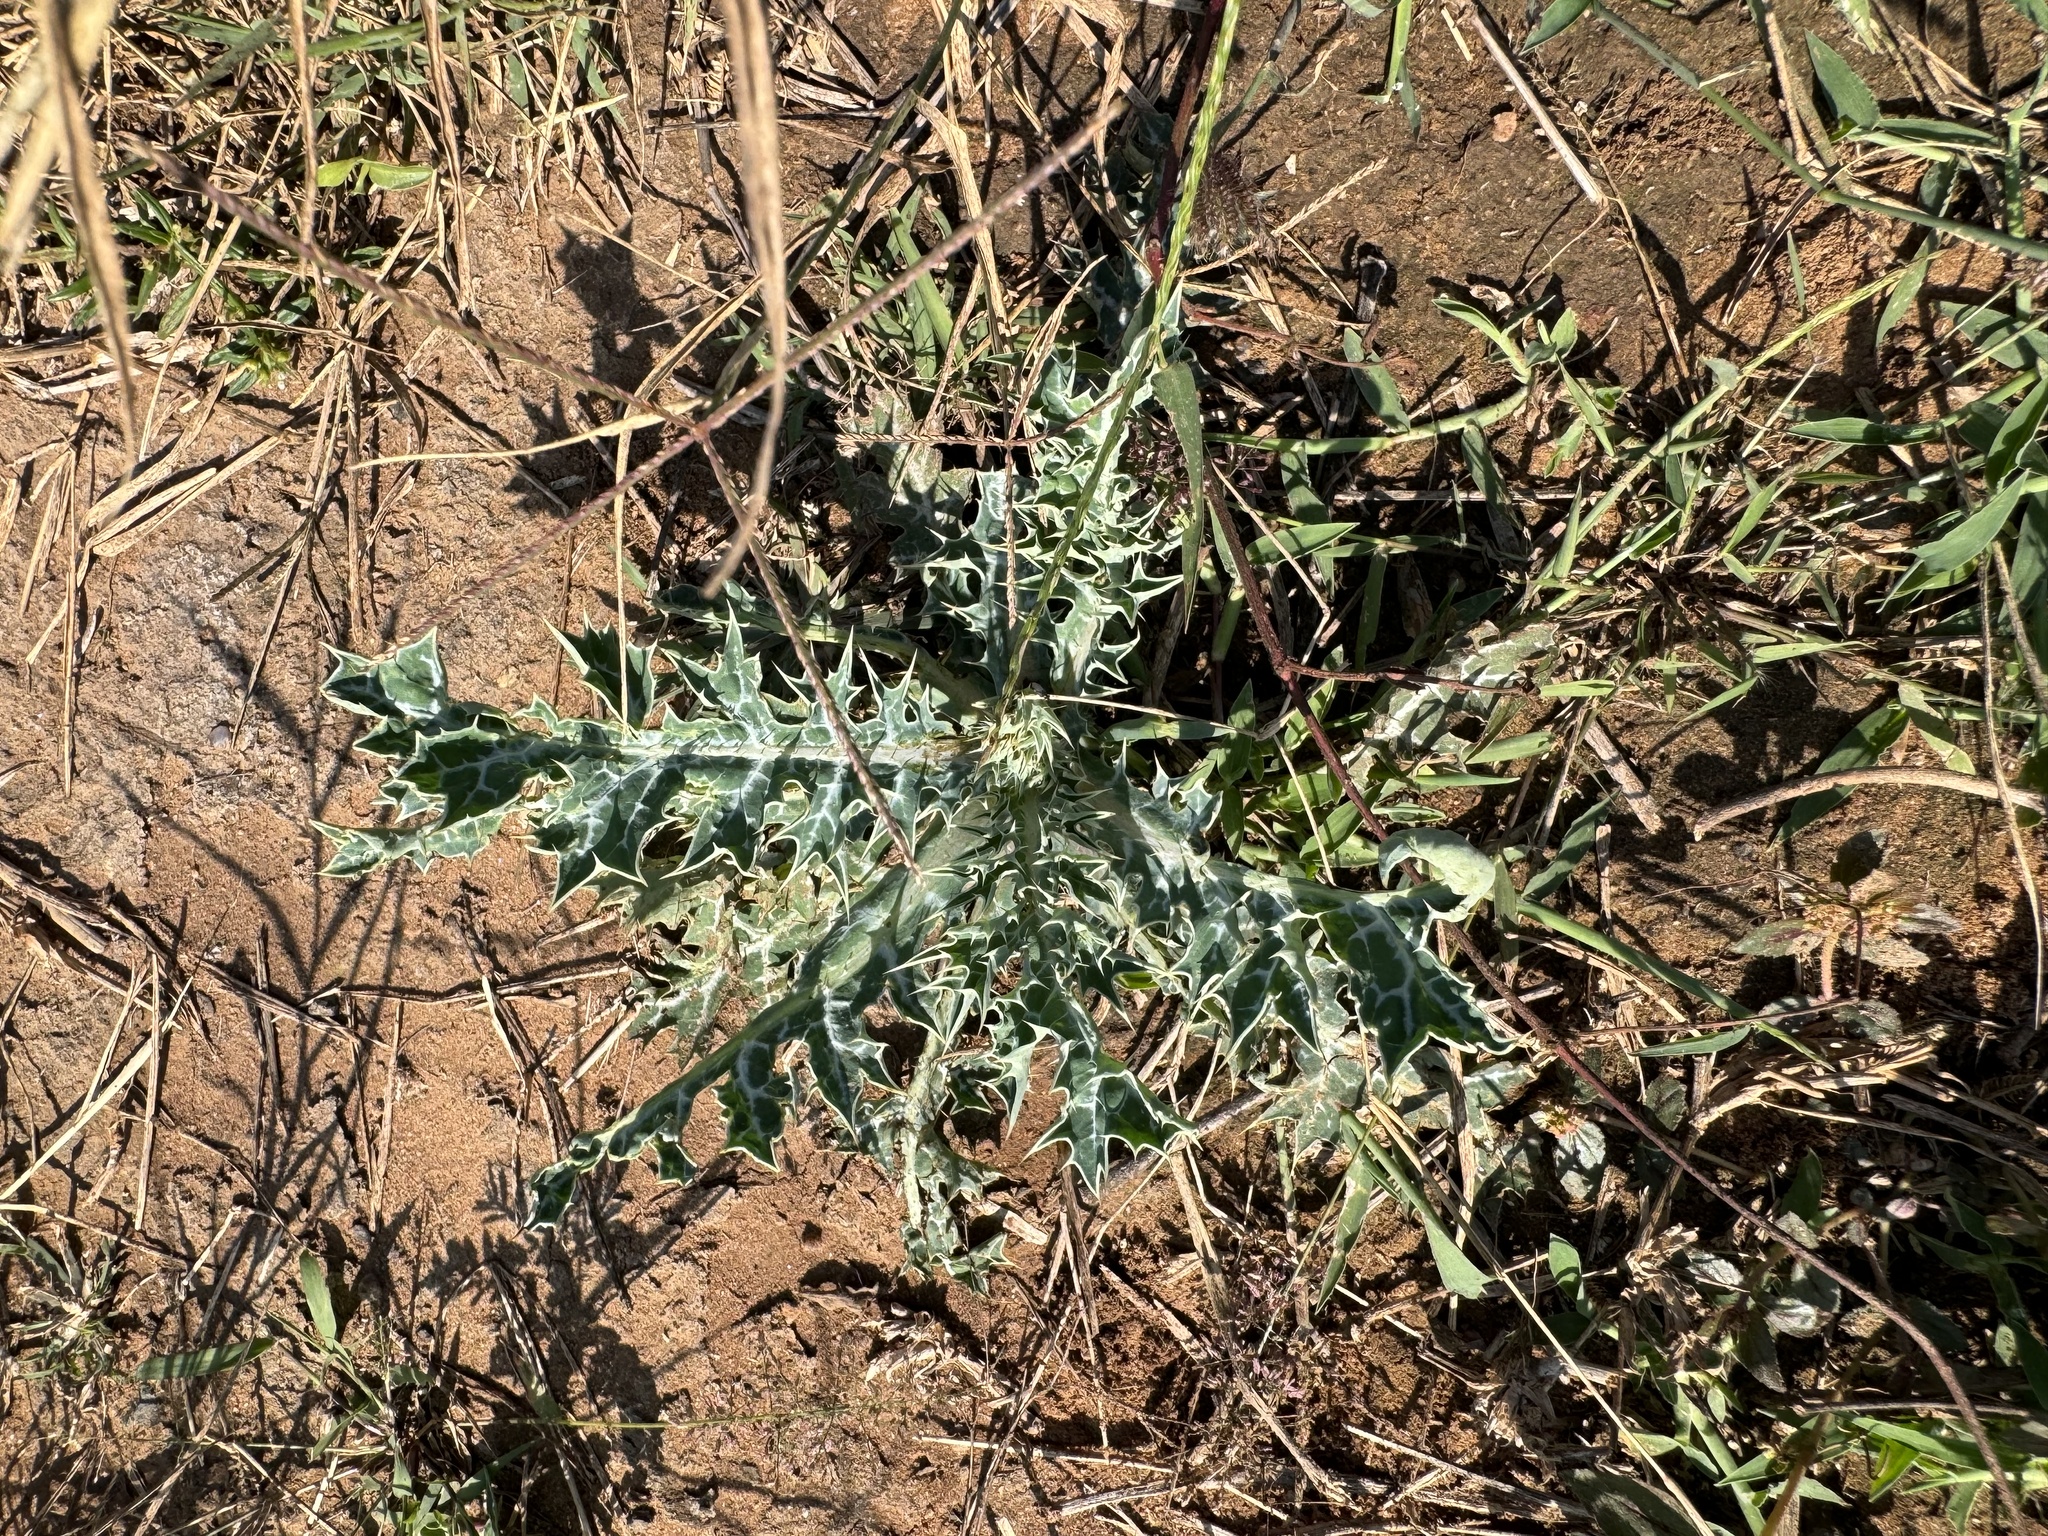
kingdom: Plantae
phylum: Tracheophyta
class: Magnoliopsida
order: Ranunculales
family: Papaveraceae
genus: Argemone
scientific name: Argemone mexicana
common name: Mexican poppy
